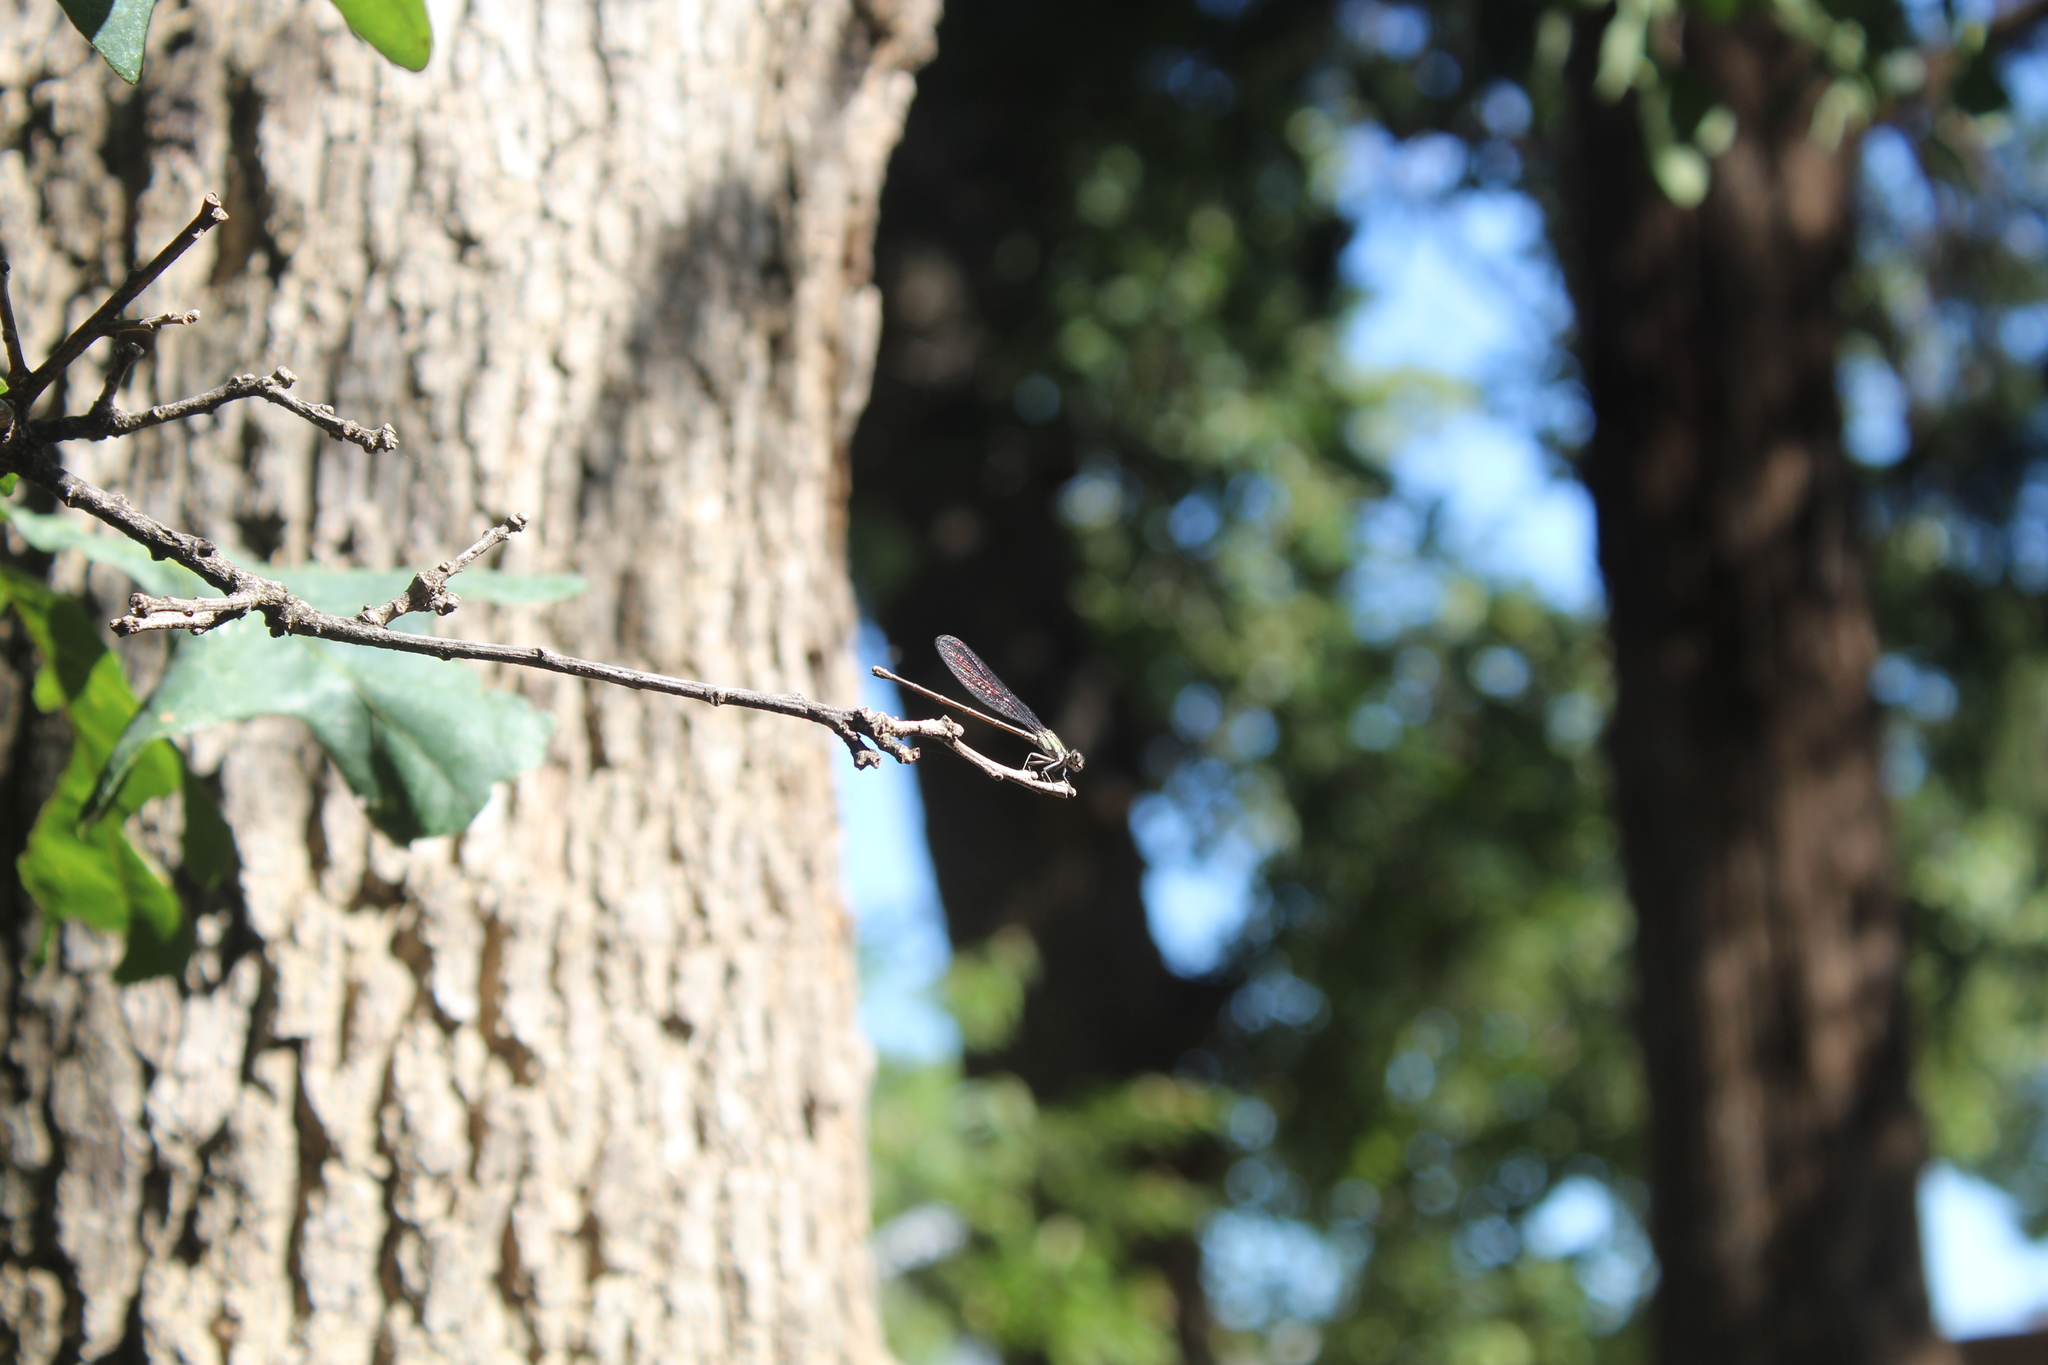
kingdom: Animalia
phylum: Arthropoda
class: Insecta
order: Odonata
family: Coenagrionidae
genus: Argia
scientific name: Argia translata
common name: Dusky dancer
